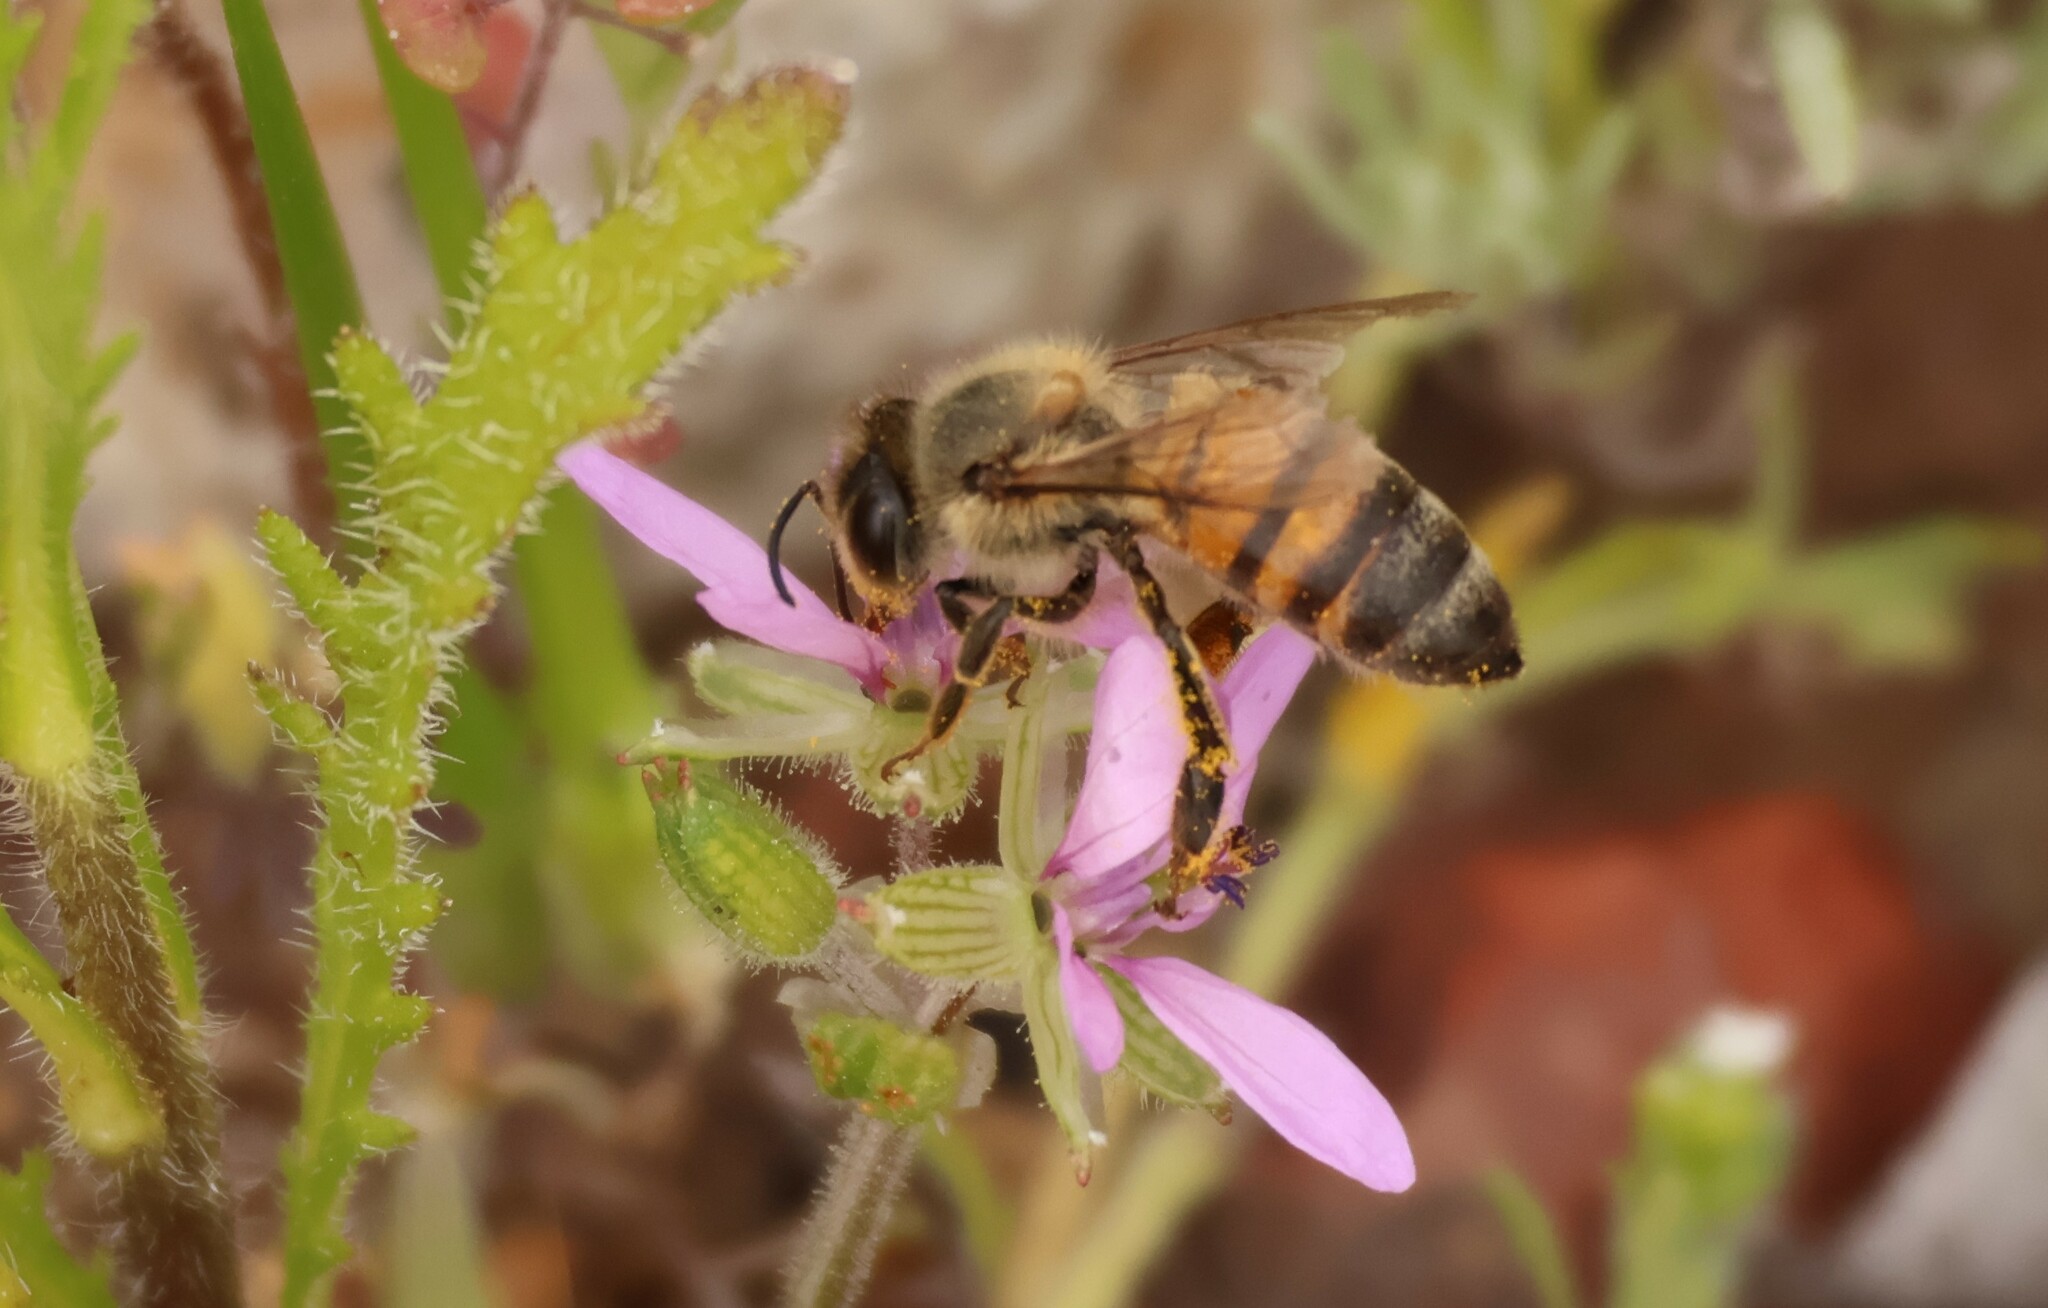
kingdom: Animalia
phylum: Arthropoda
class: Insecta
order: Hymenoptera
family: Apidae
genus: Apis
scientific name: Apis mellifera
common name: Honey bee
